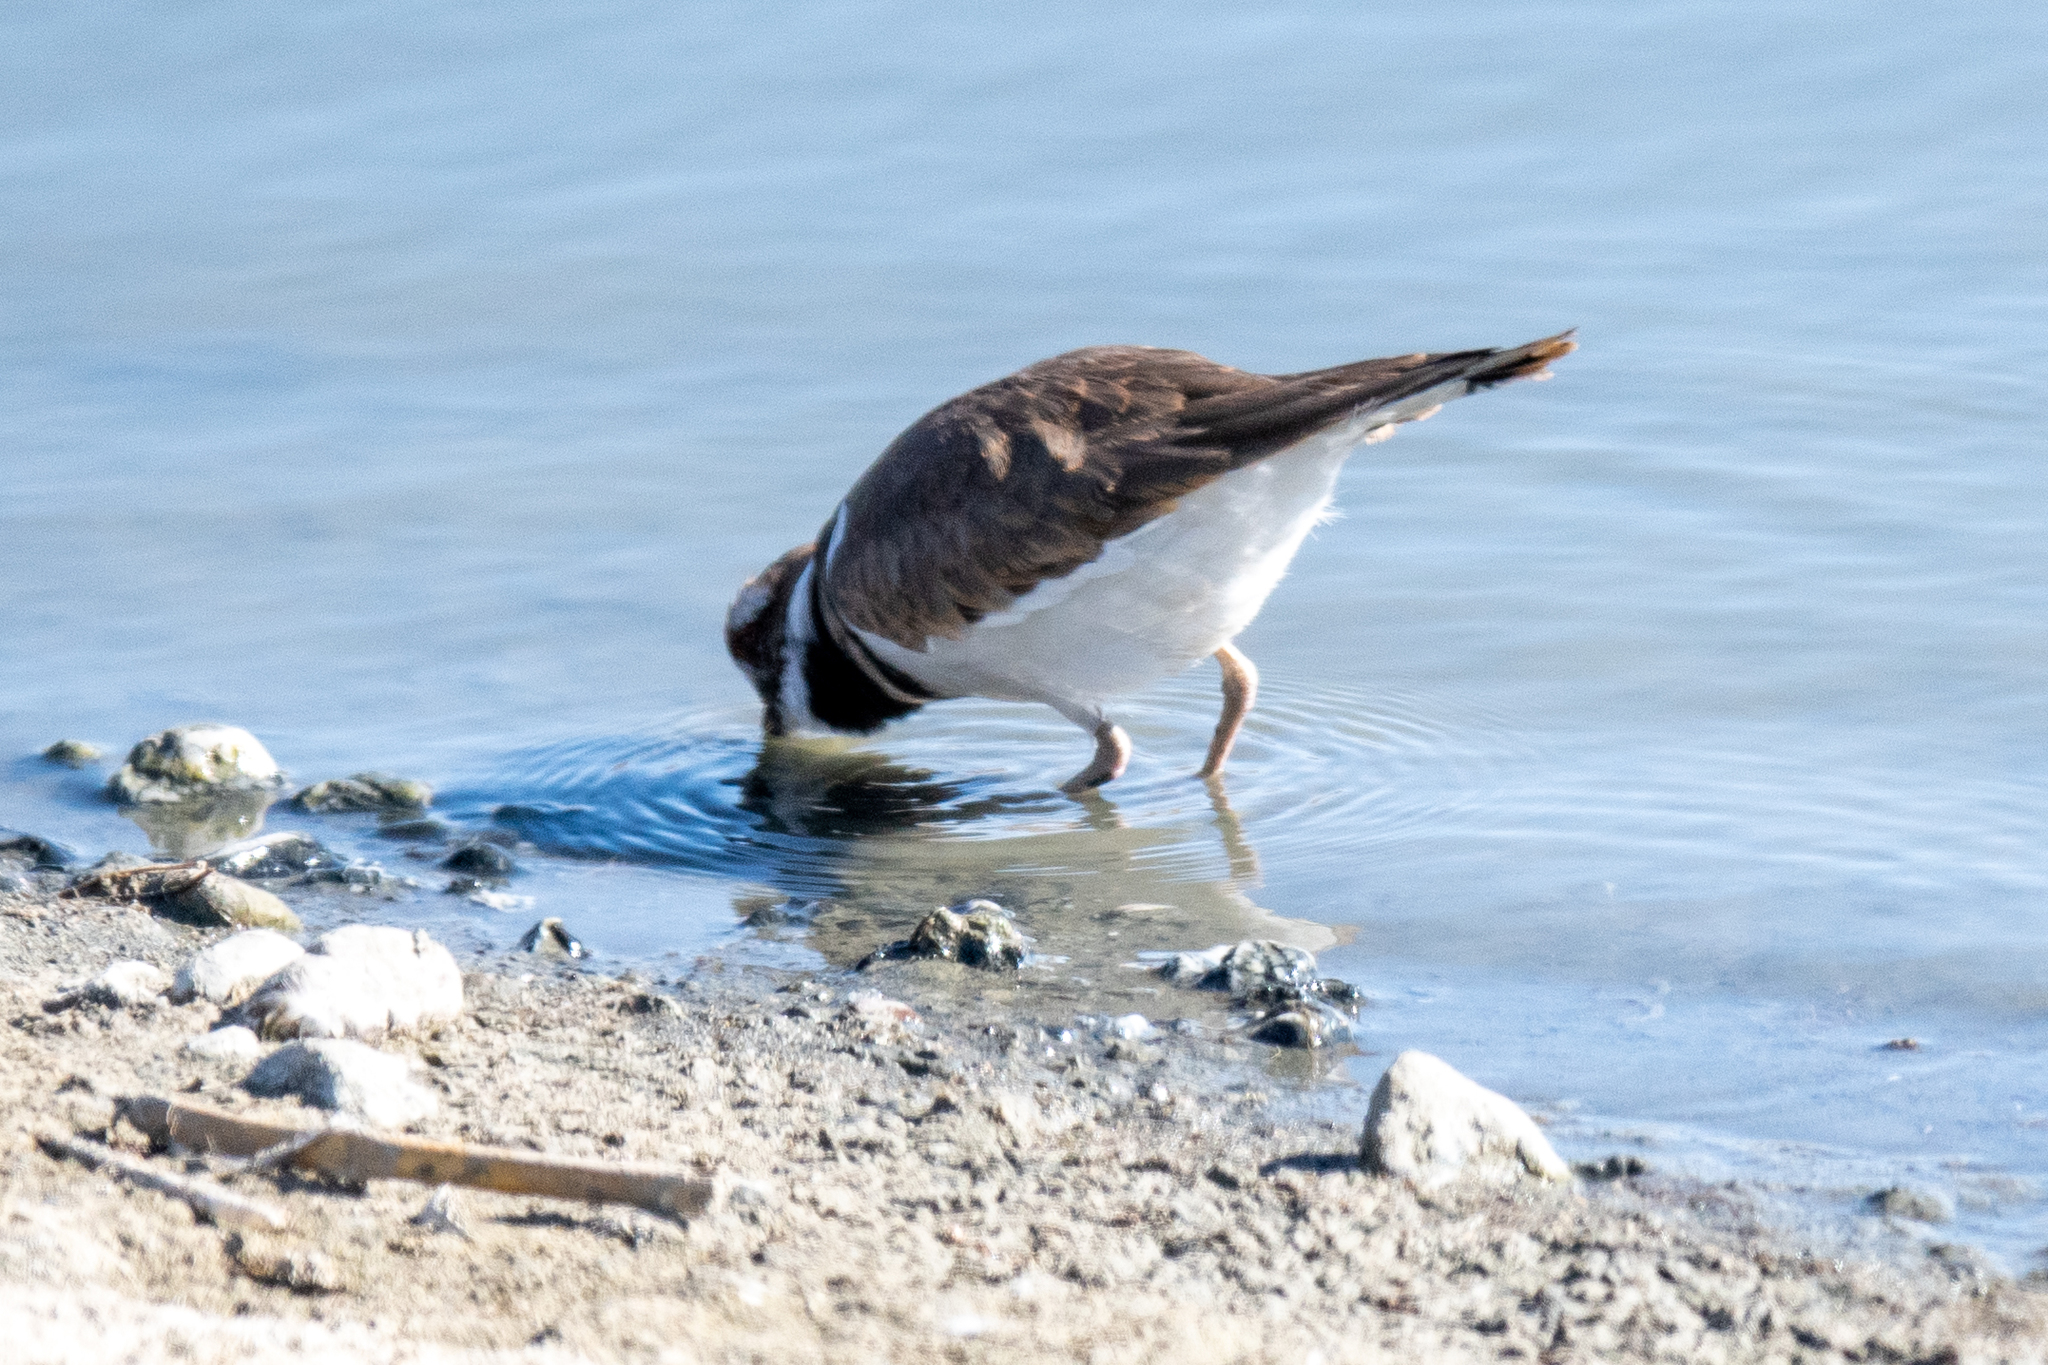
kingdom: Animalia
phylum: Chordata
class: Aves
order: Charadriiformes
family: Charadriidae
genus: Charadrius
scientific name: Charadrius vociferus
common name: Killdeer
